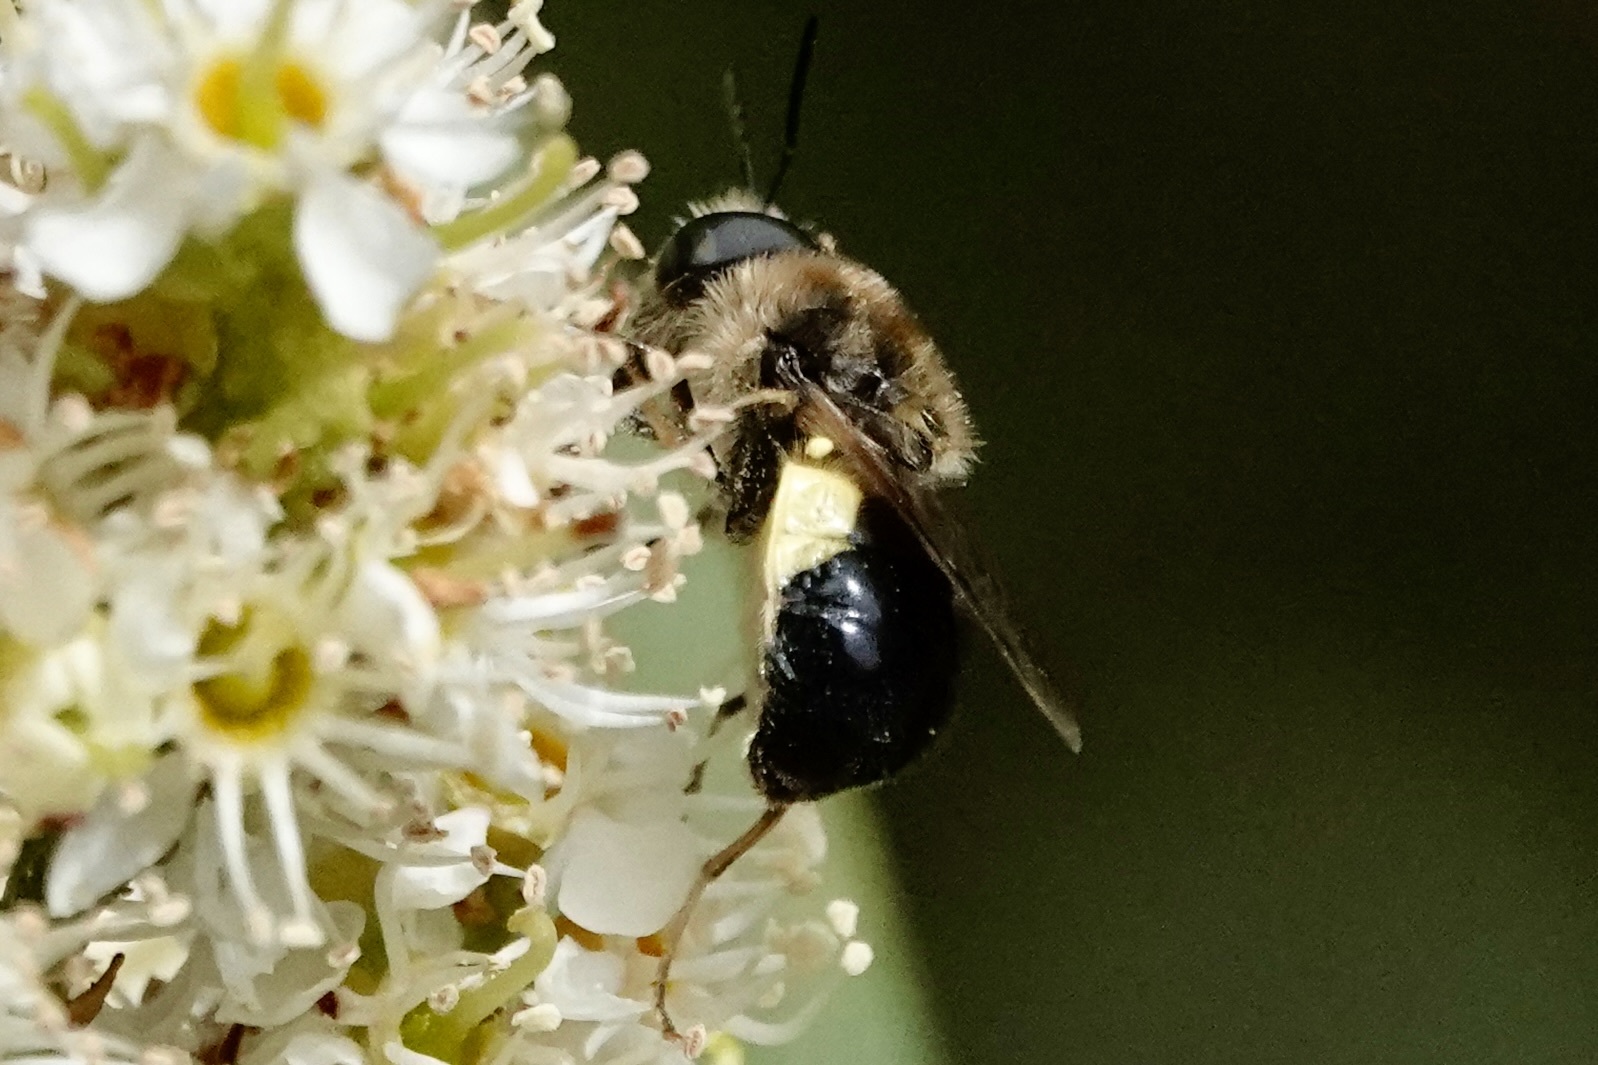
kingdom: Animalia
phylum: Arthropoda
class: Insecta
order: Diptera
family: Stratiomyidae
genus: Stratiomys
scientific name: Stratiomys discalis
